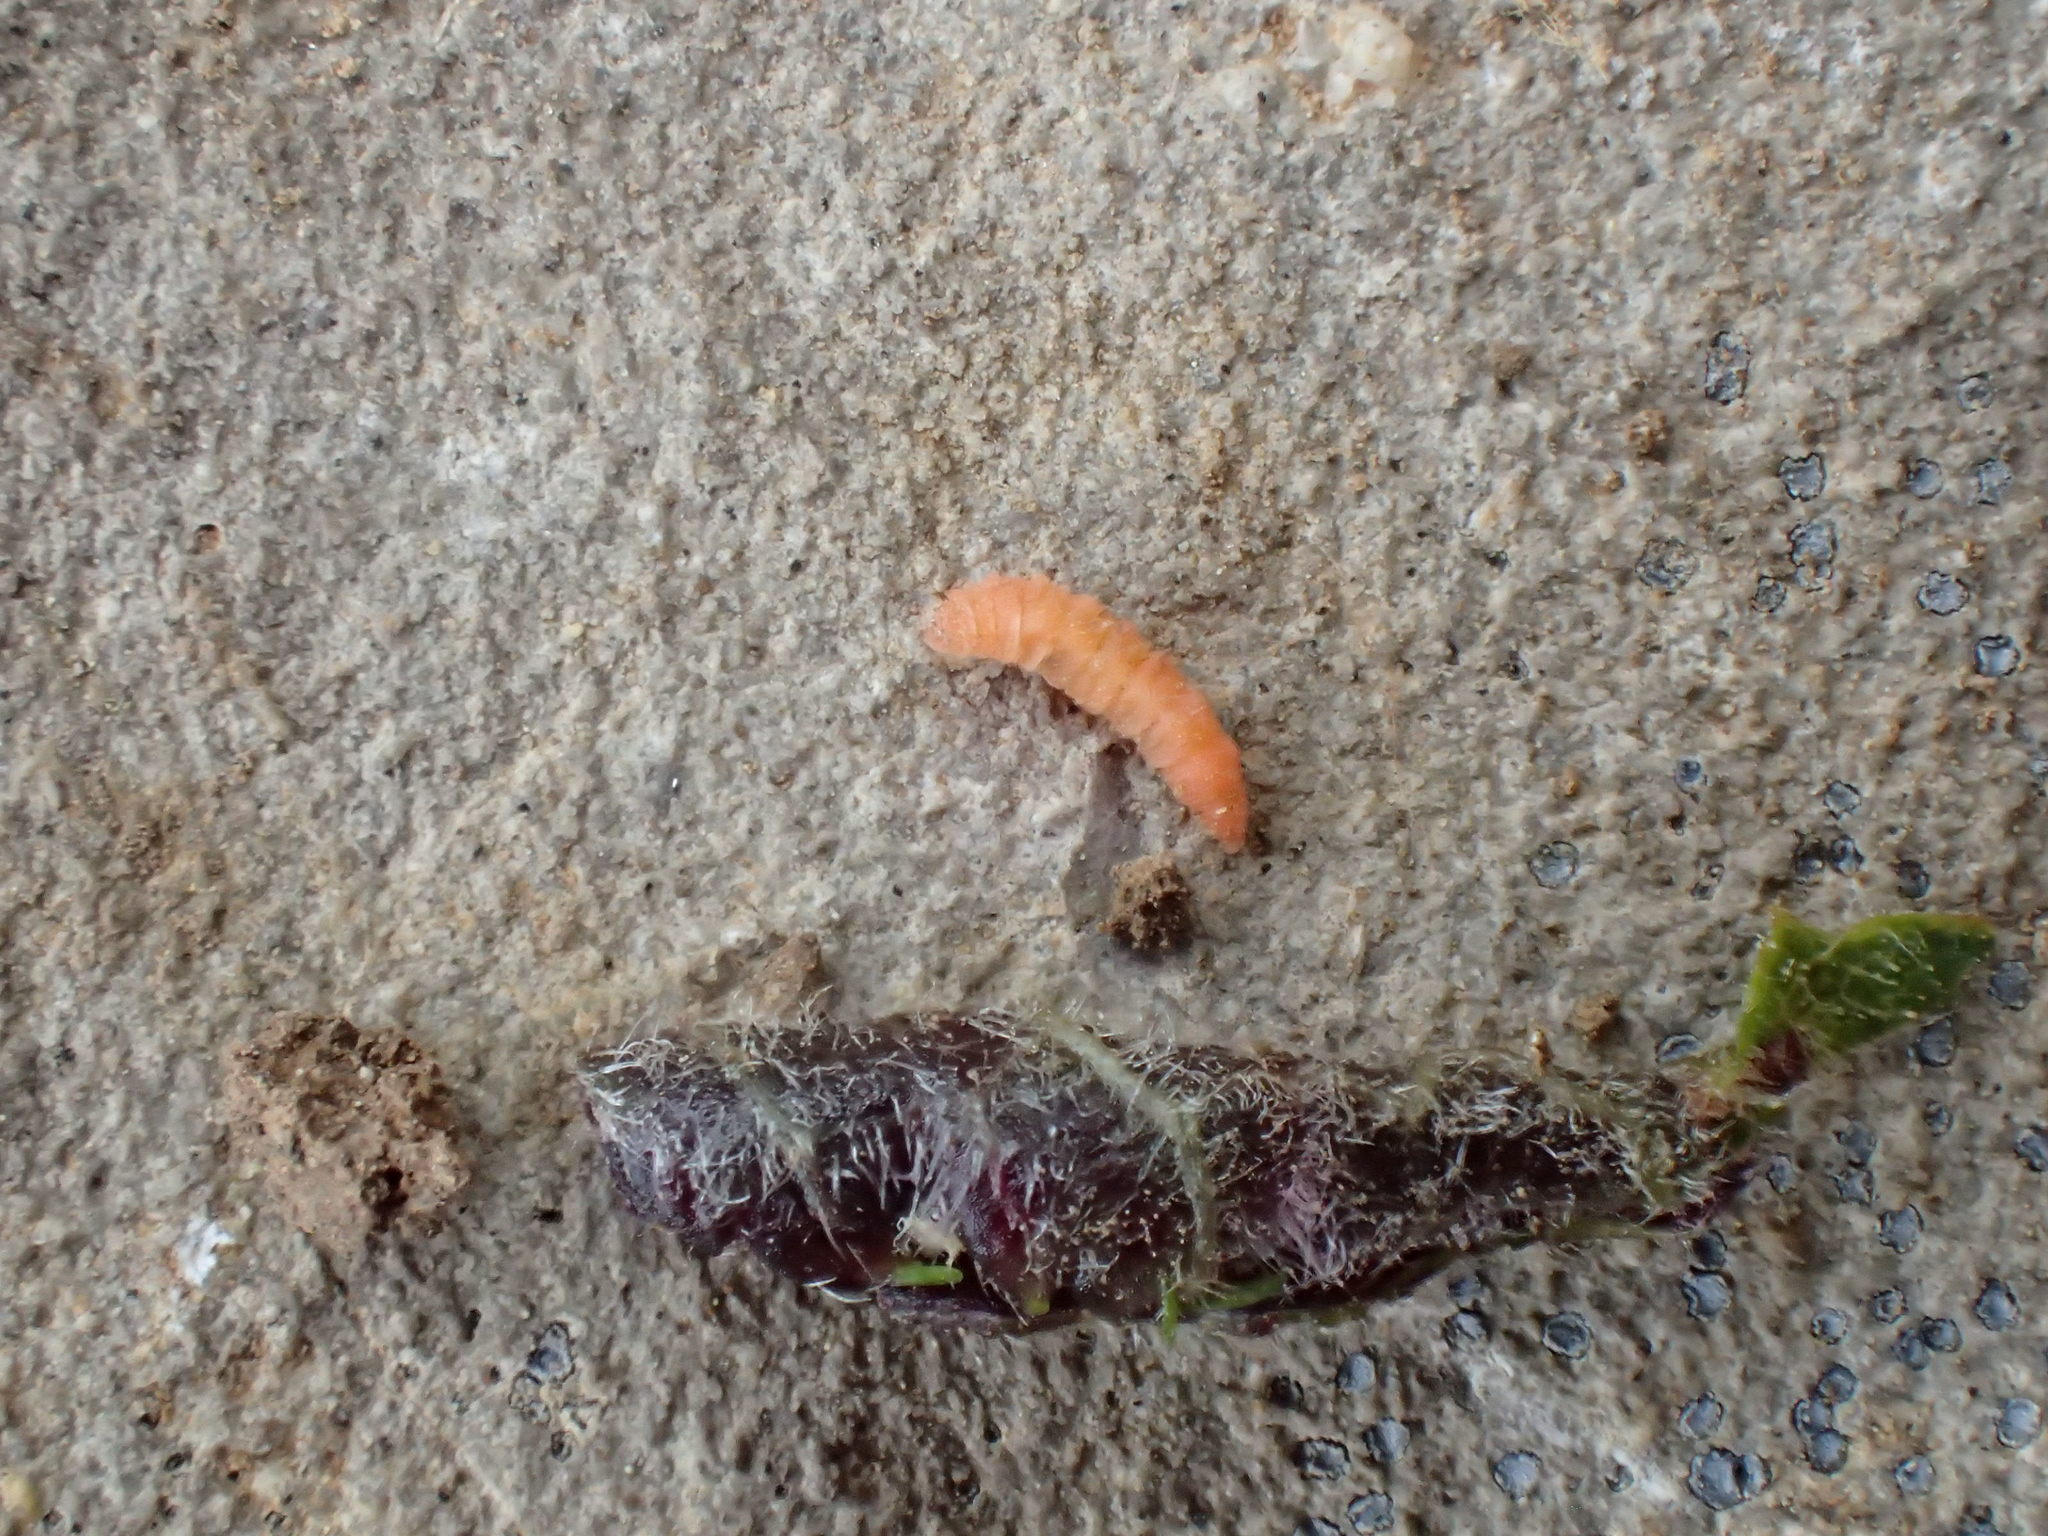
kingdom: Animalia
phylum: Arthropoda
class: Insecta
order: Diptera
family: Cecidomyiidae
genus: Dasineura
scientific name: Dasineura tiliae
